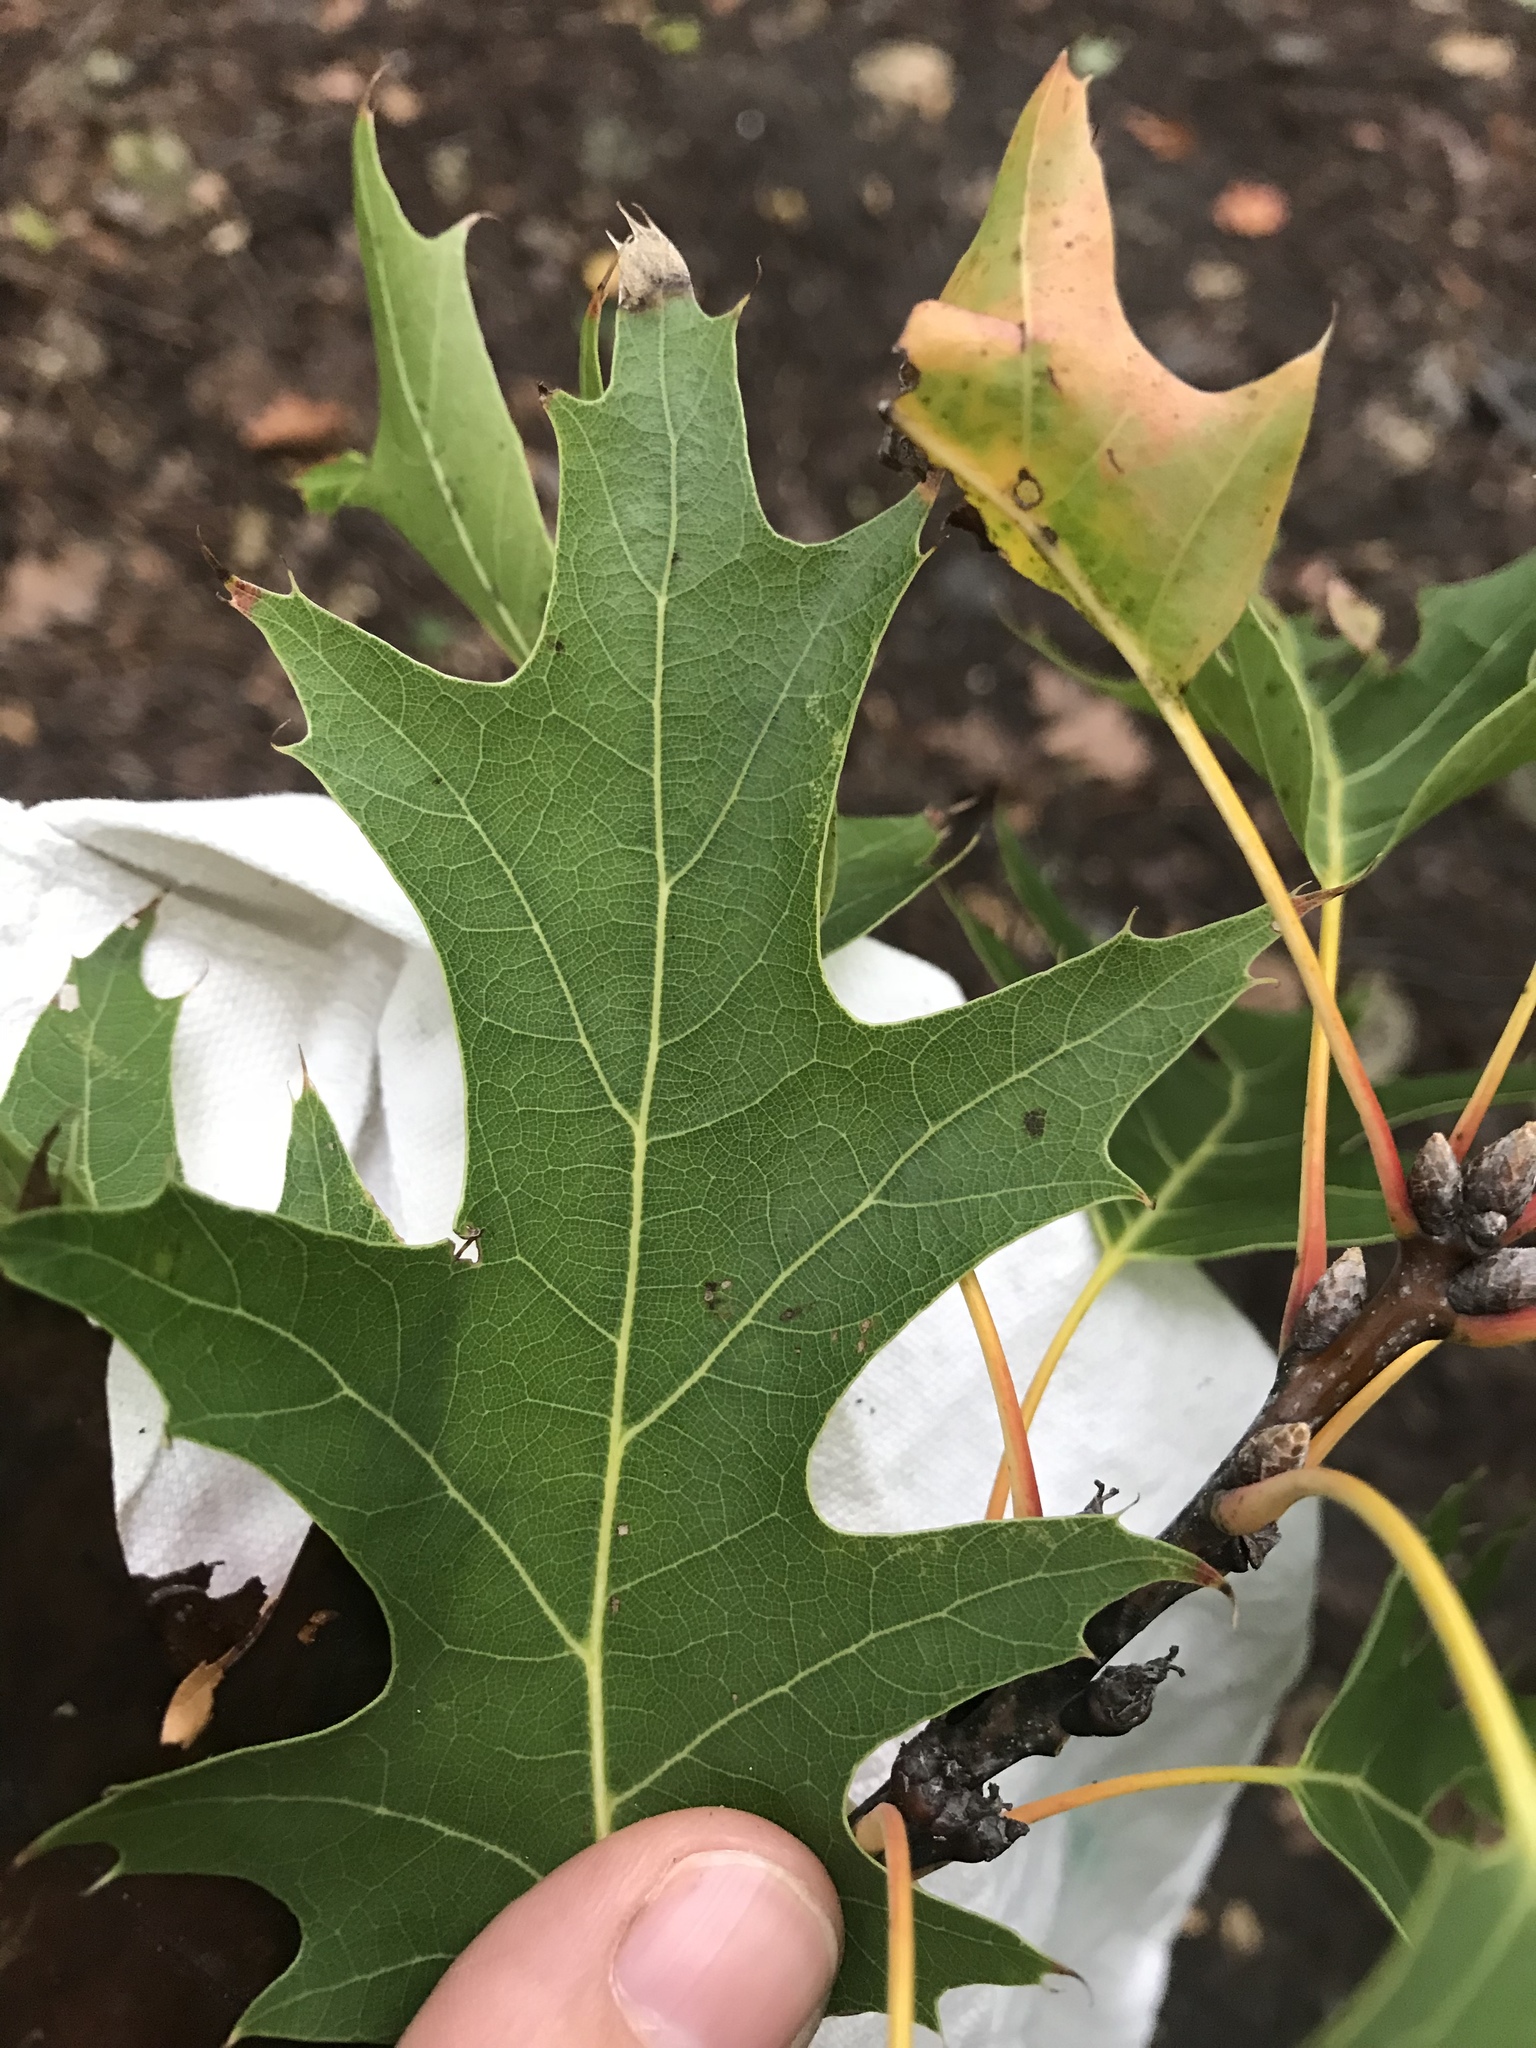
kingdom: Plantae
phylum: Tracheophyta
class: Magnoliopsida
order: Fagales
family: Fagaceae
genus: Quercus
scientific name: Quercus velutina
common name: Black oak
